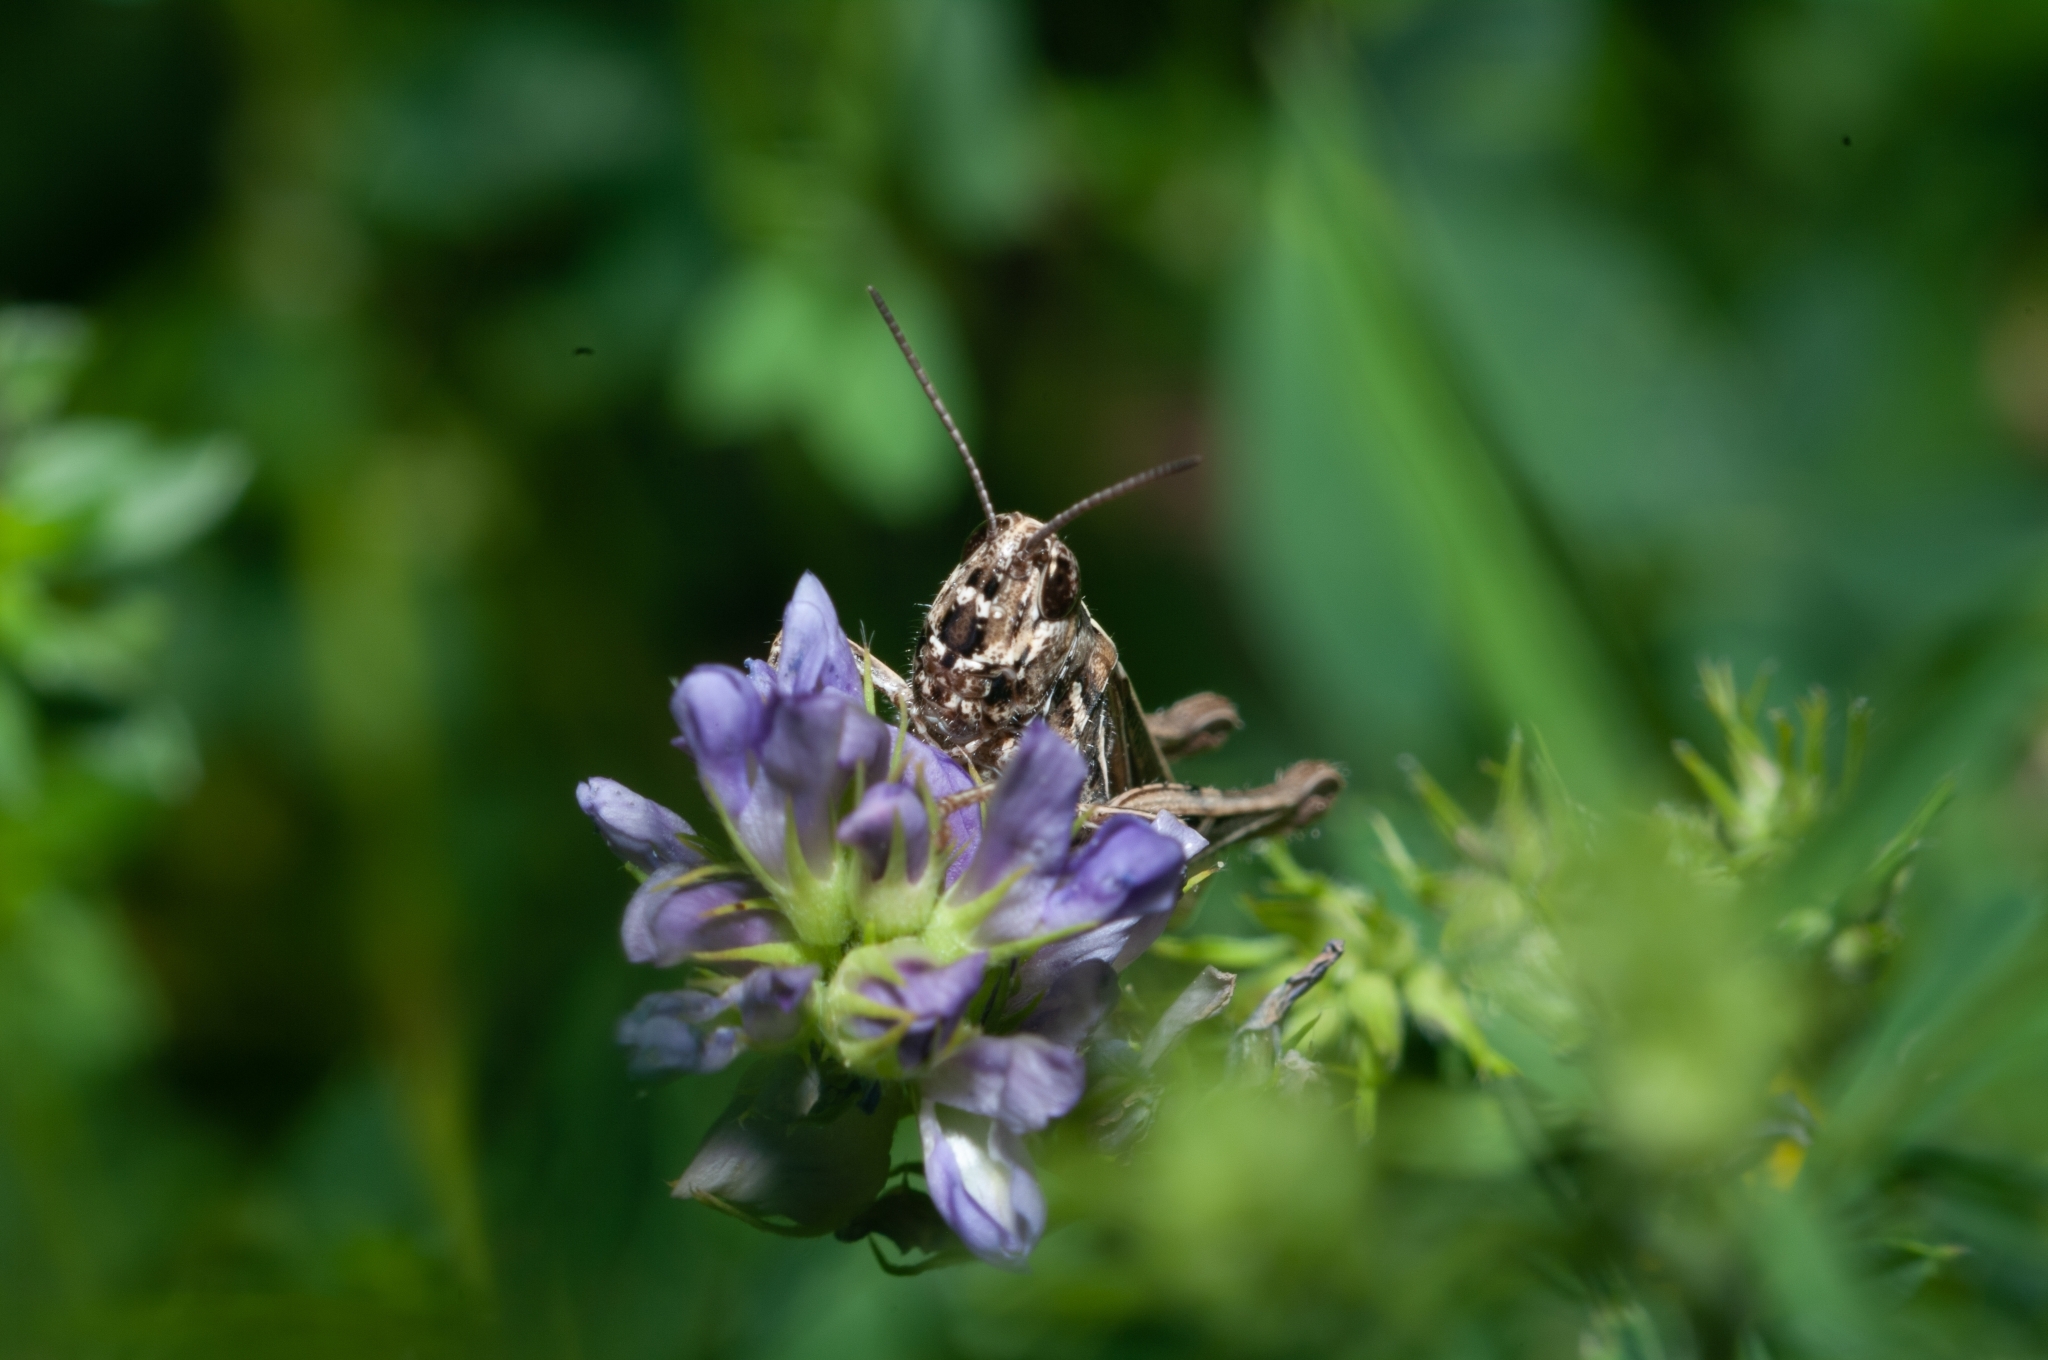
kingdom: Animalia
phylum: Arthropoda
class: Insecta
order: Orthoptera
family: Acrididae
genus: Glyptobothrus
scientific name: Glyptobothrus
